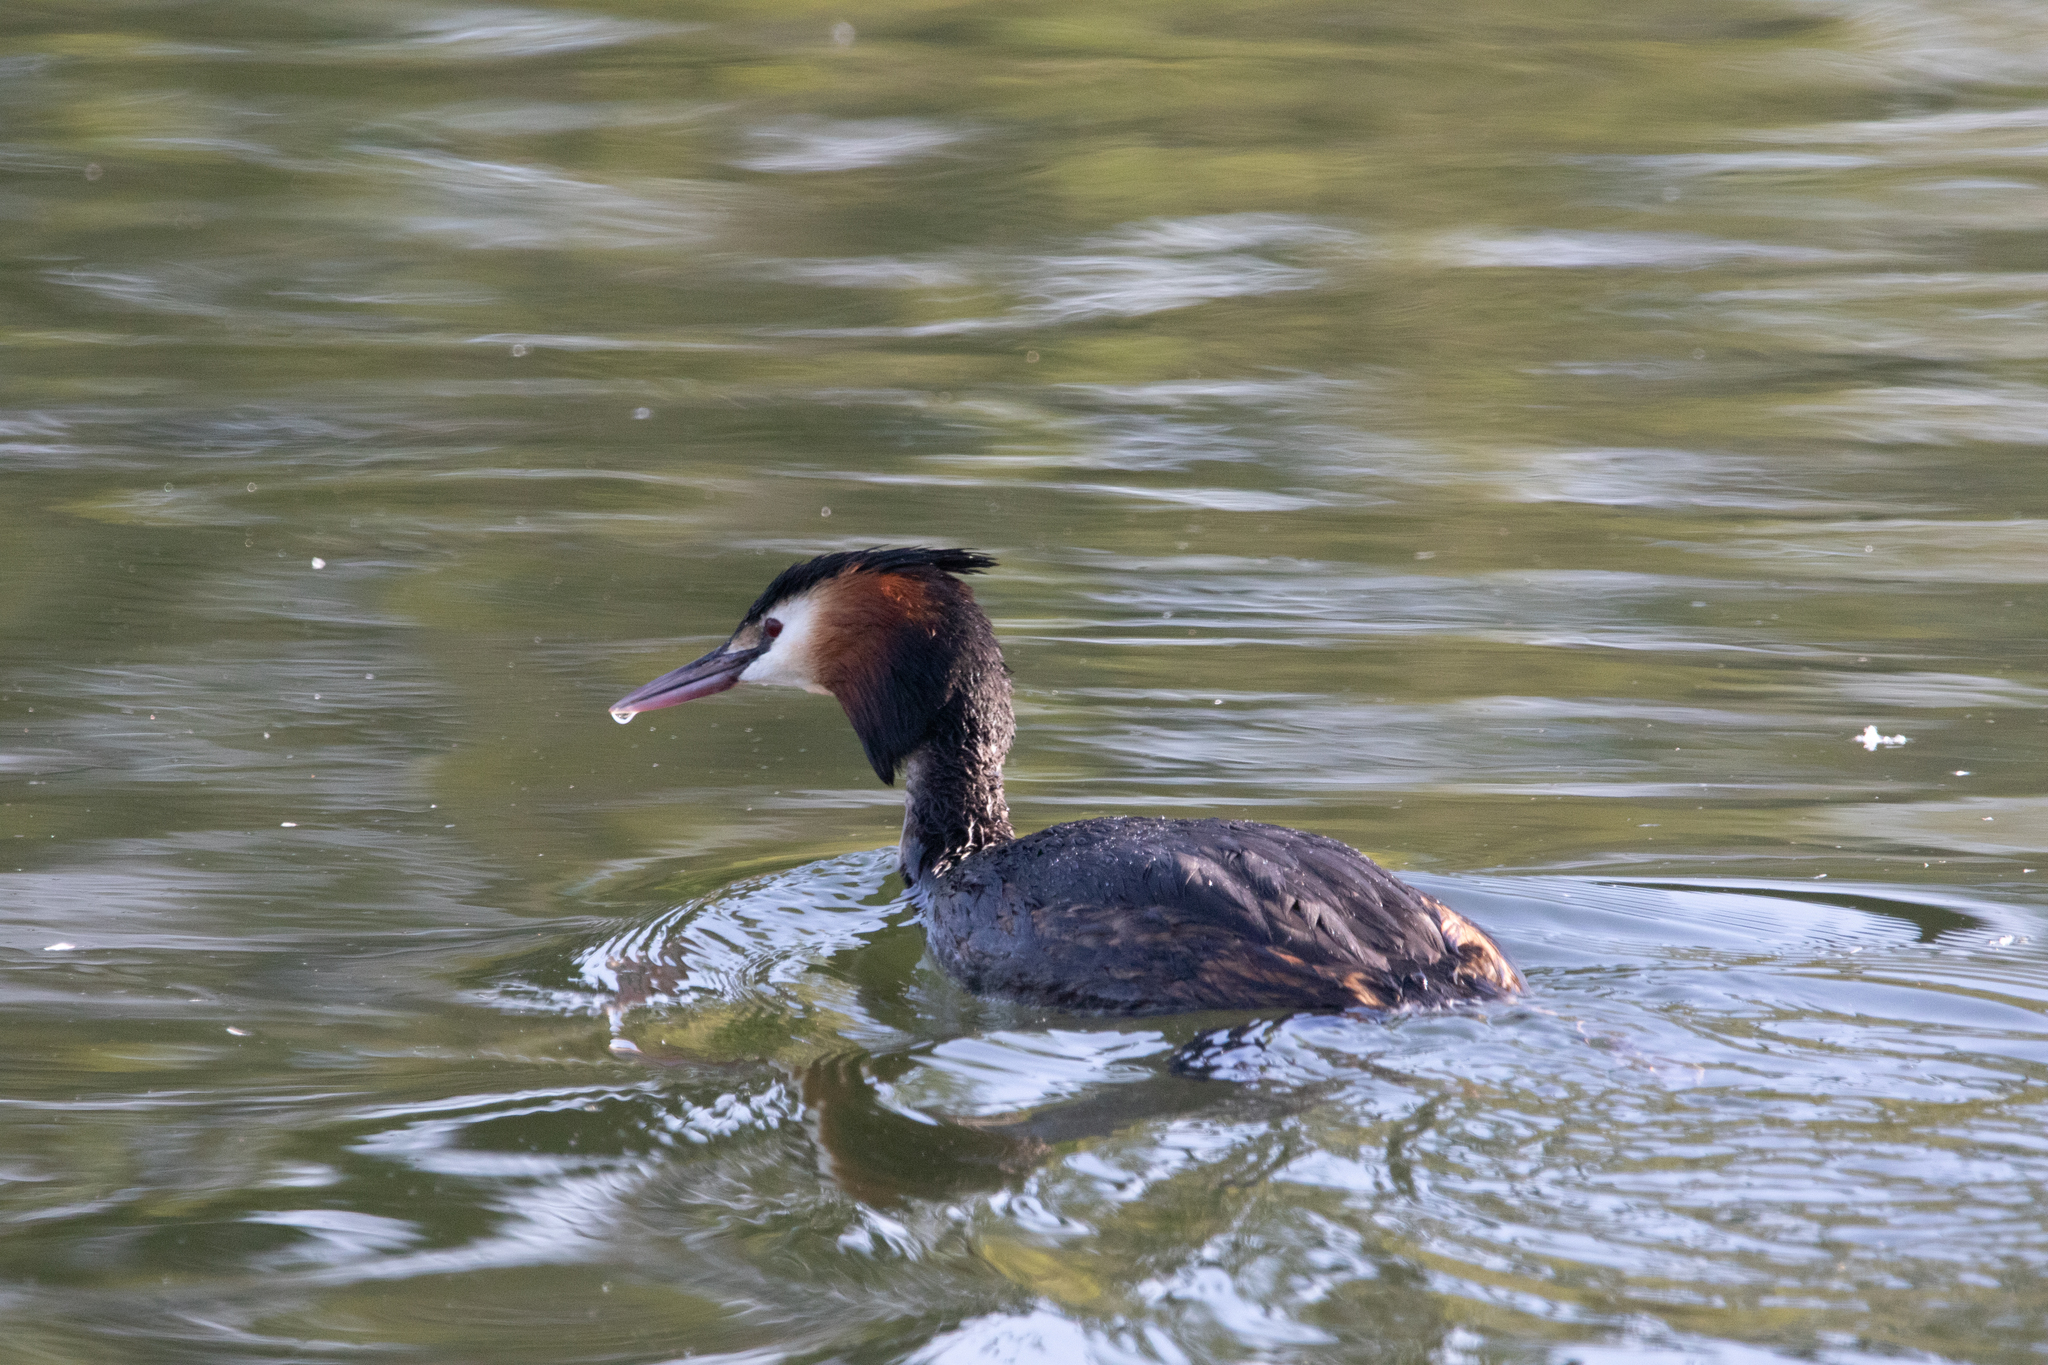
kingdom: Animalia
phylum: Chordata
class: Aves
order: Podicipediformes
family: Podicipedidae
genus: Podiceps
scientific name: Podiceps cristatus
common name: Great crested grebe
